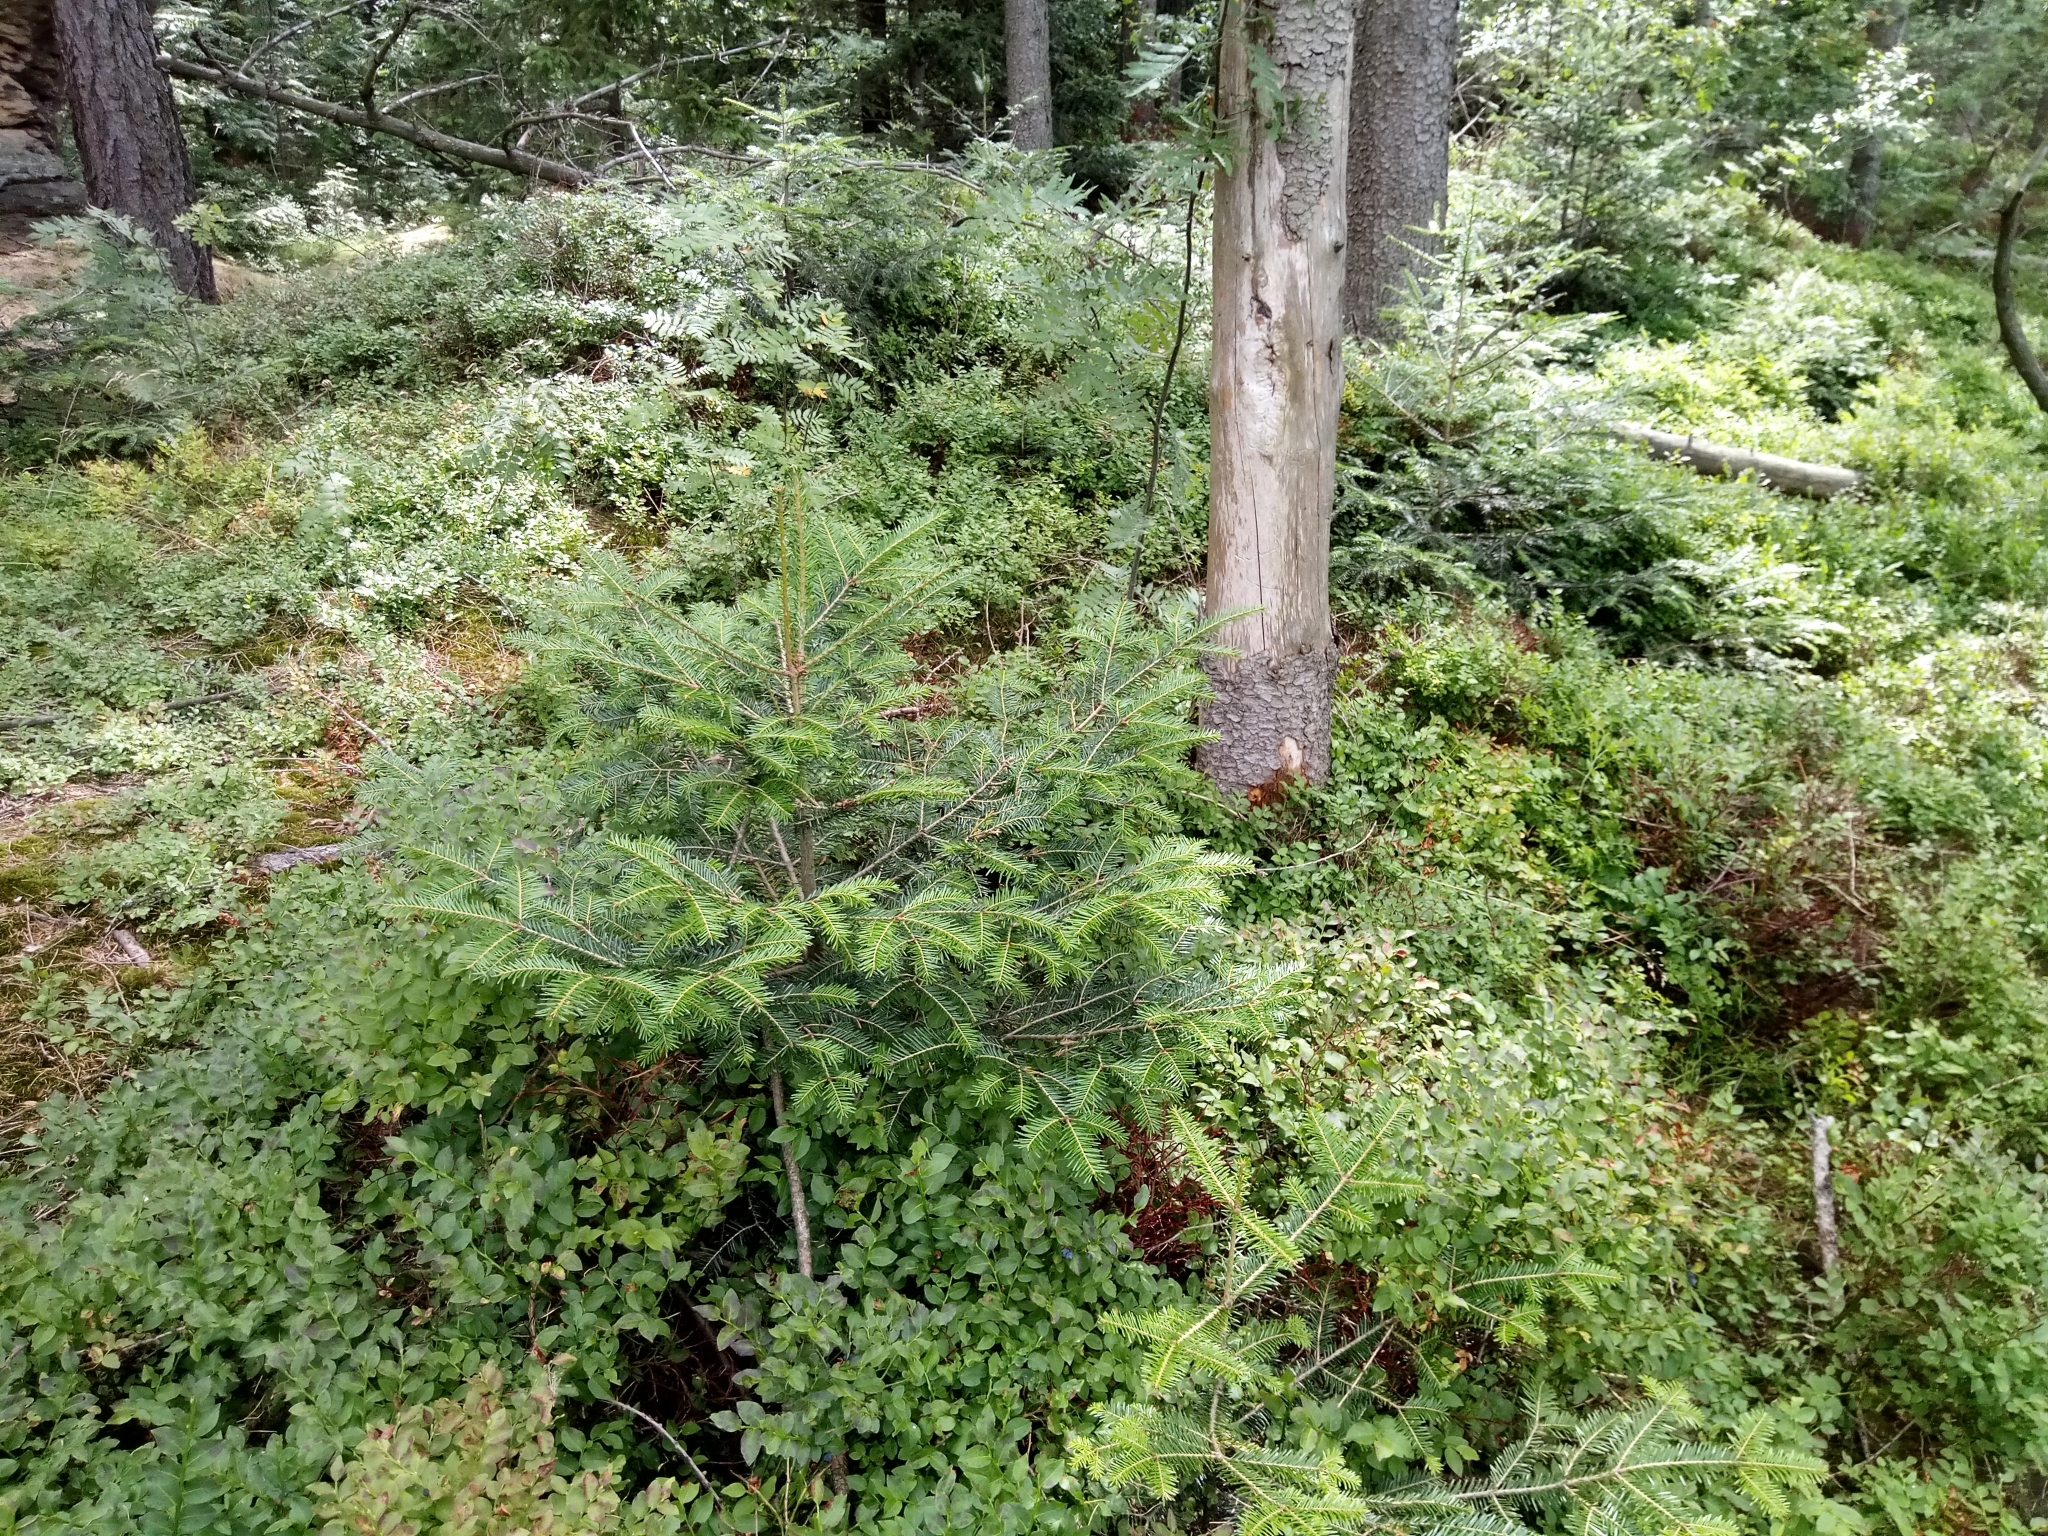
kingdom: Plantae
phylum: Tracheophyta
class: Pinopsida
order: Pinales
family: Pinaceae
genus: Abies
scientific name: Abies alba
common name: Silver fir
